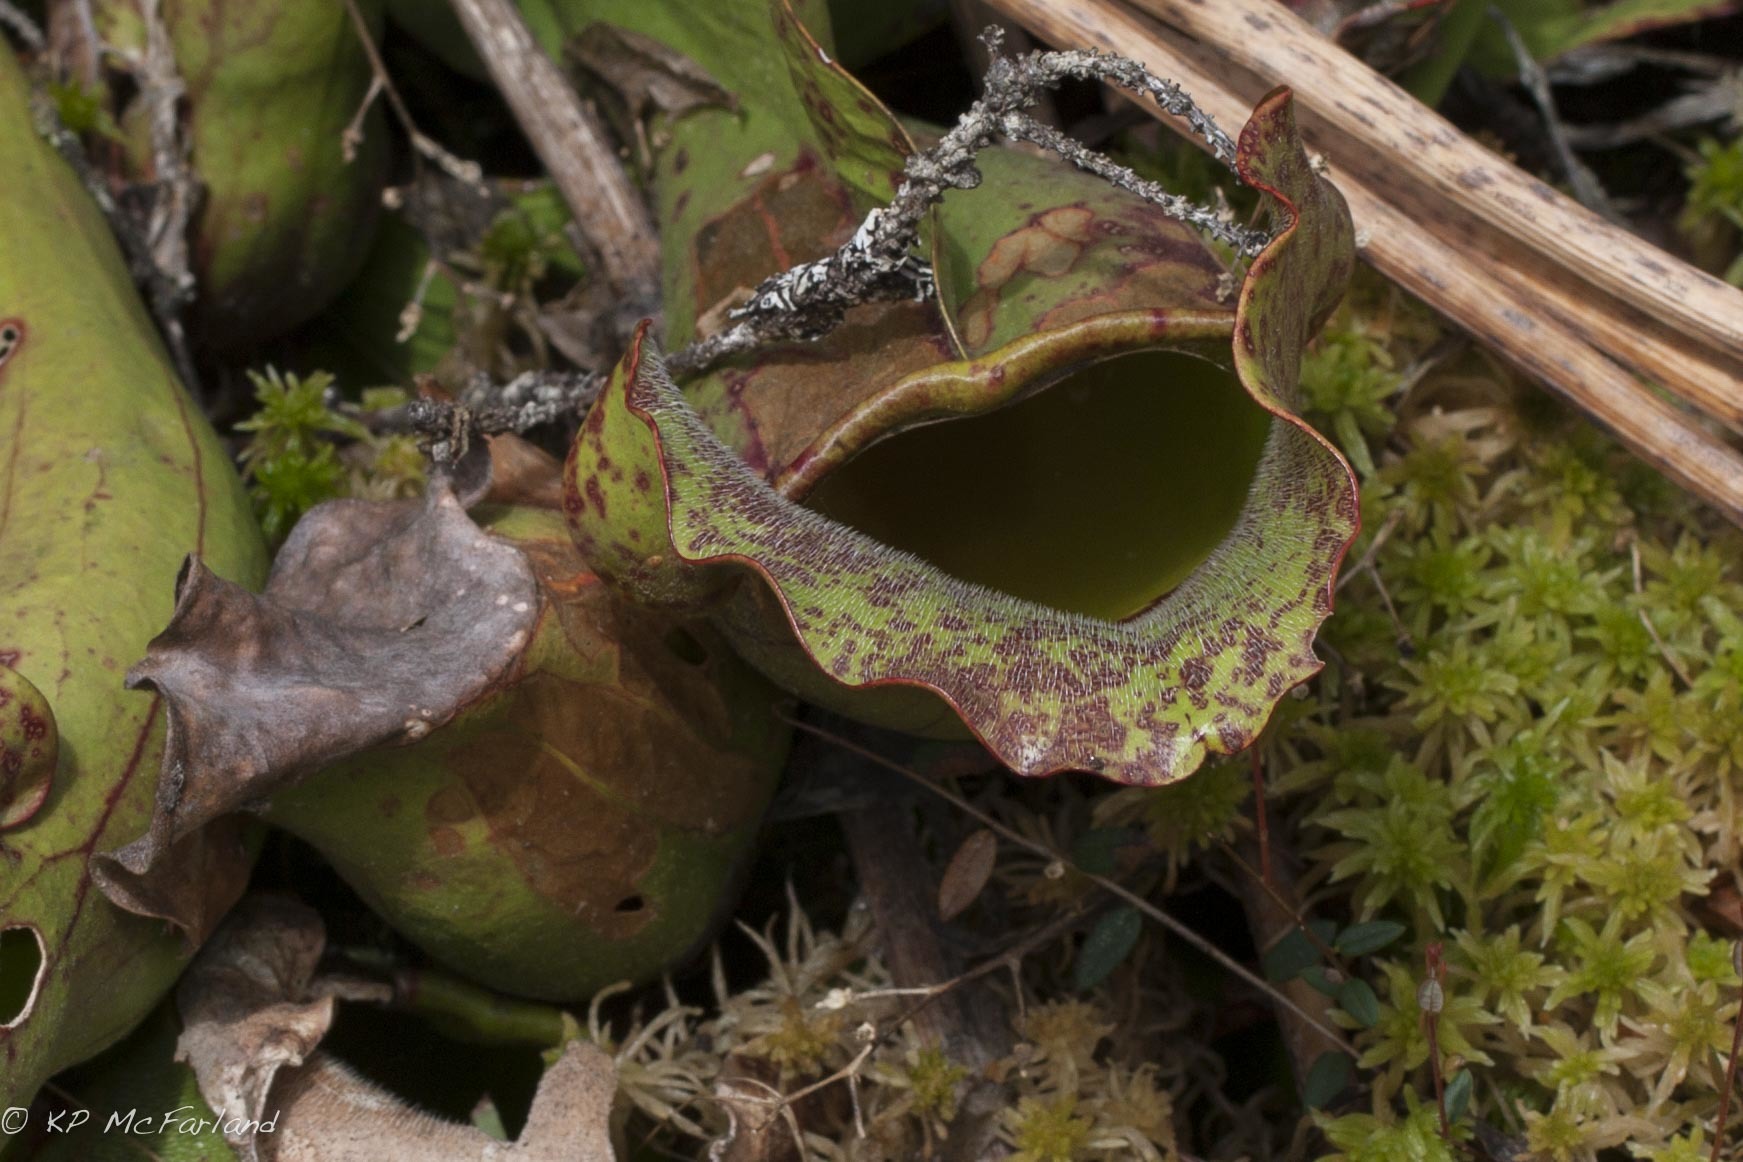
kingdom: Plantae
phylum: Tracheophyta
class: Magnoliopsida
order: Ericales
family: Sarraceniaceae
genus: Sarracenia
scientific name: Sarracenia purpurea
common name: Pitcherplant
